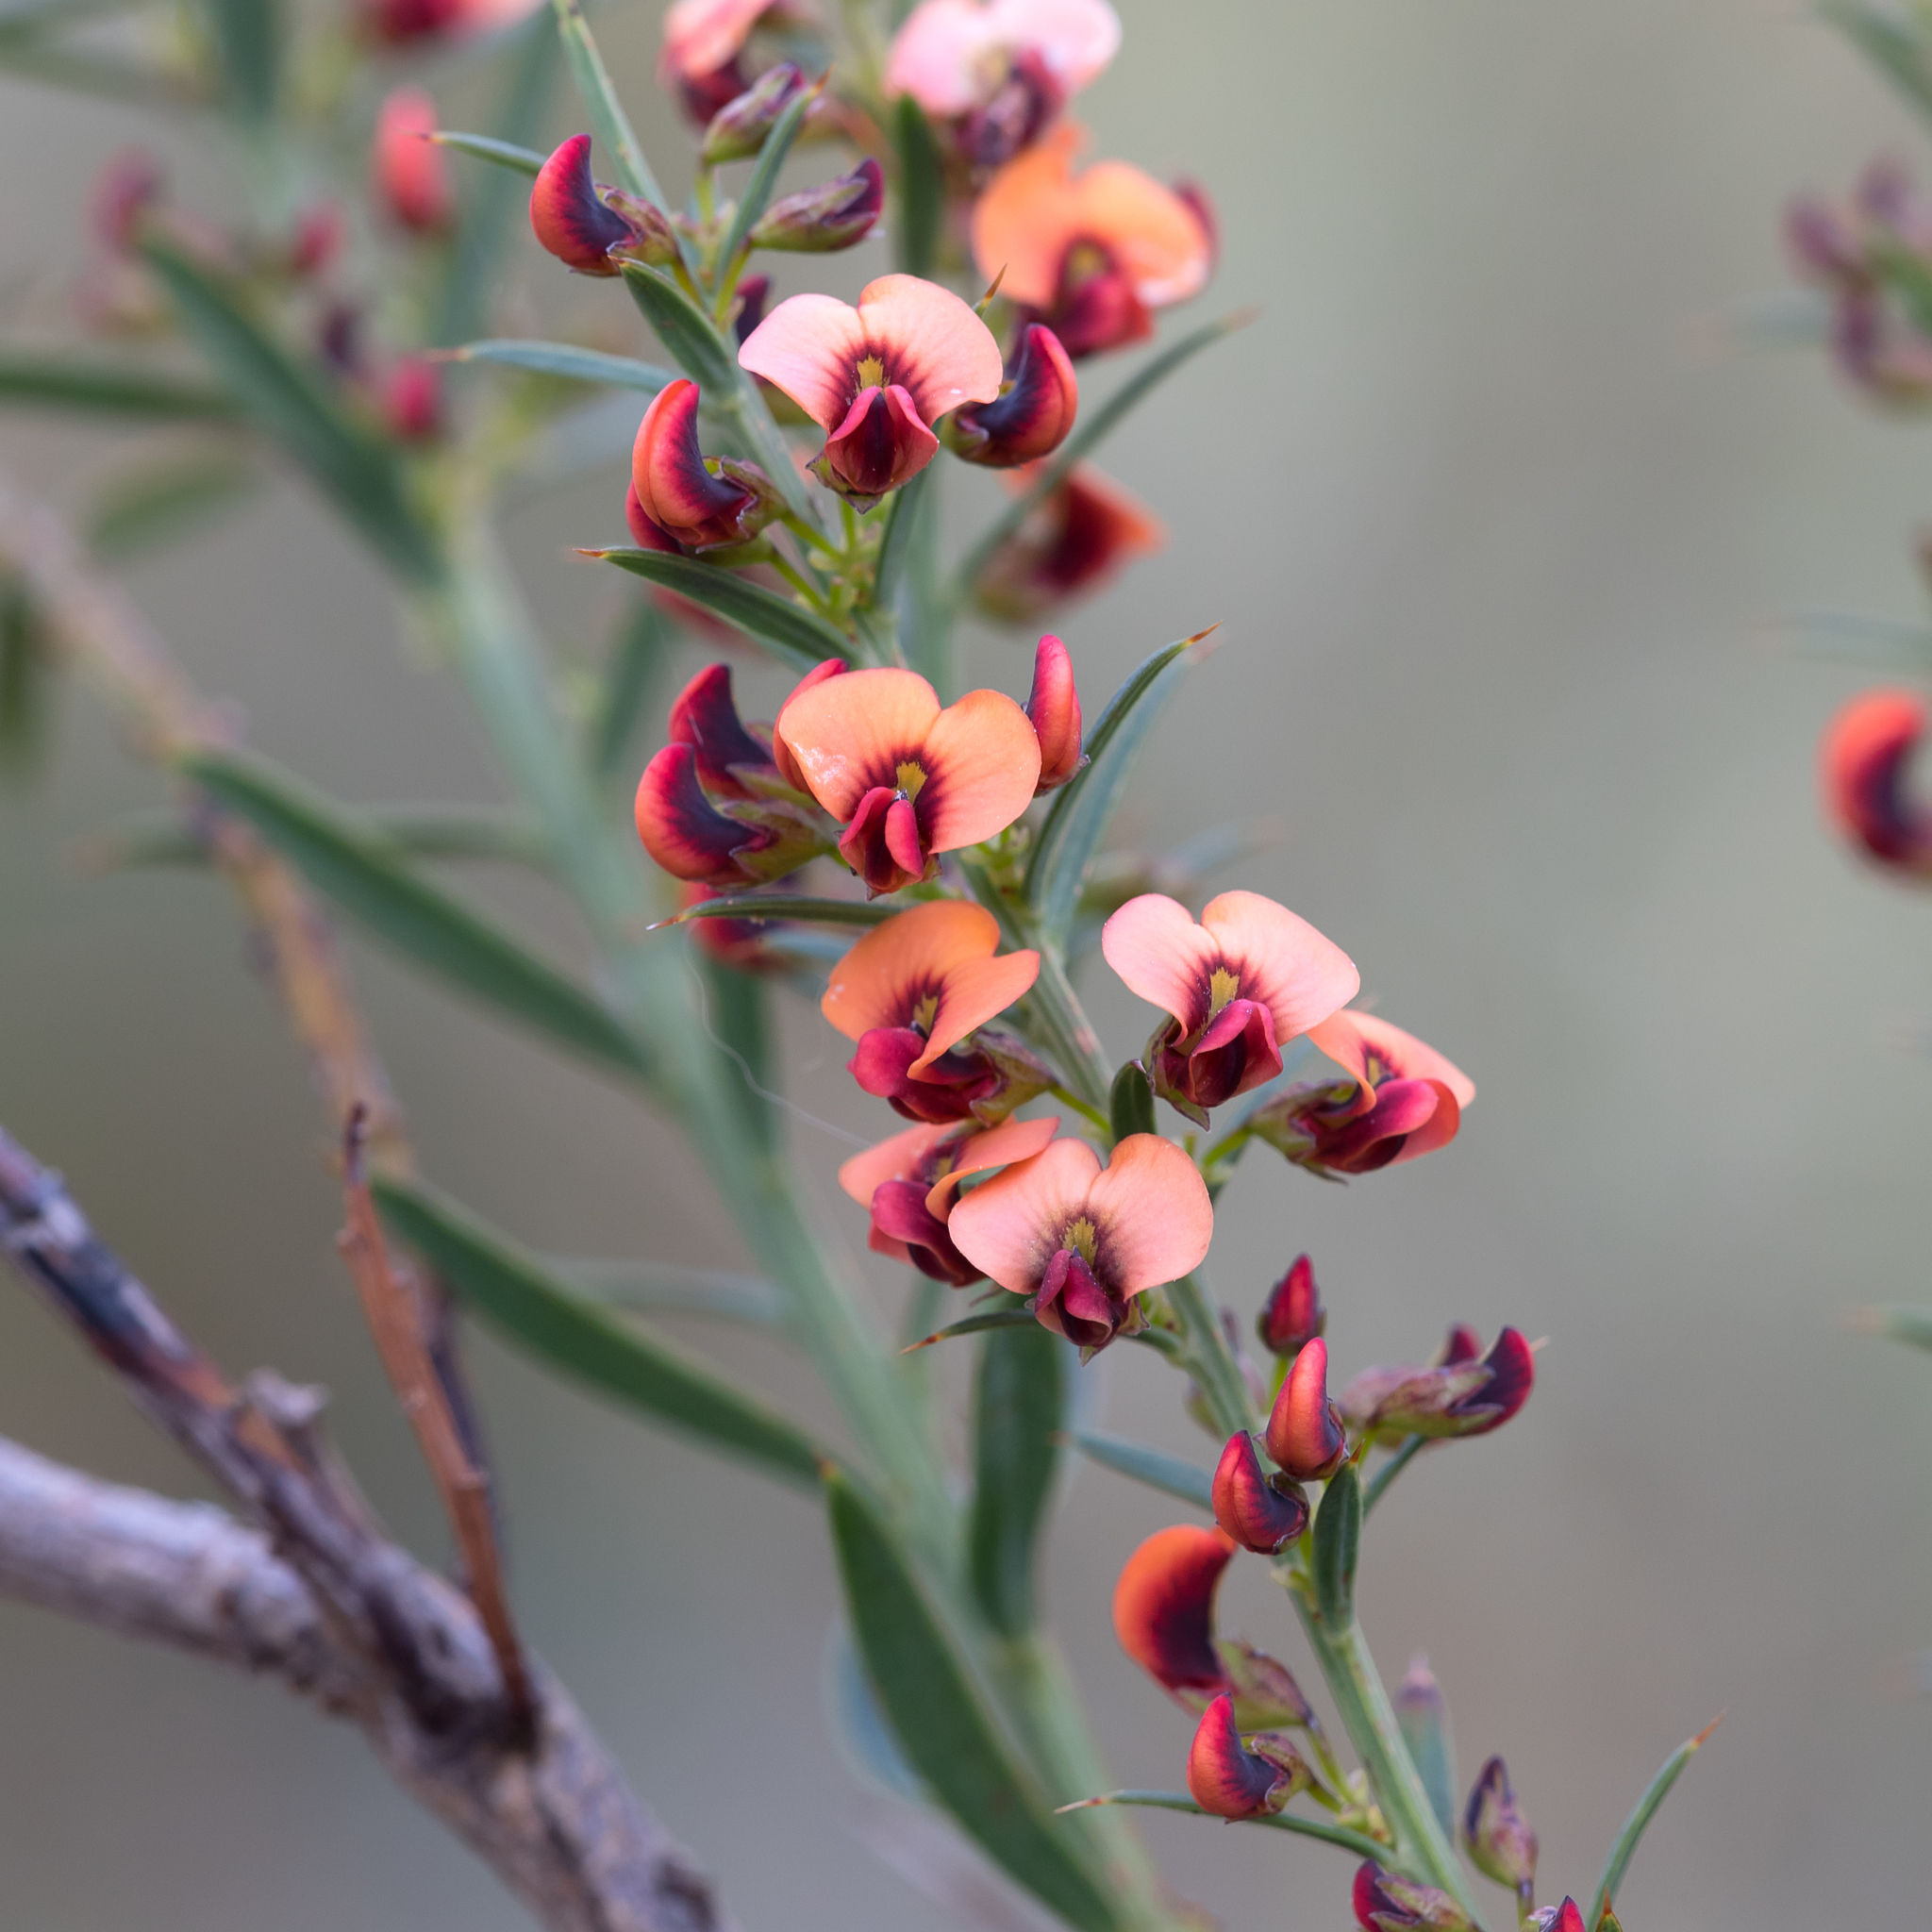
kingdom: Plantae
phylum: Tracheophyta
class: Magnoliopsida
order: Fabales
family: Fabaceae
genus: Daviesia
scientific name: Daviesia ulicifolia
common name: Gorse bitter-pea
